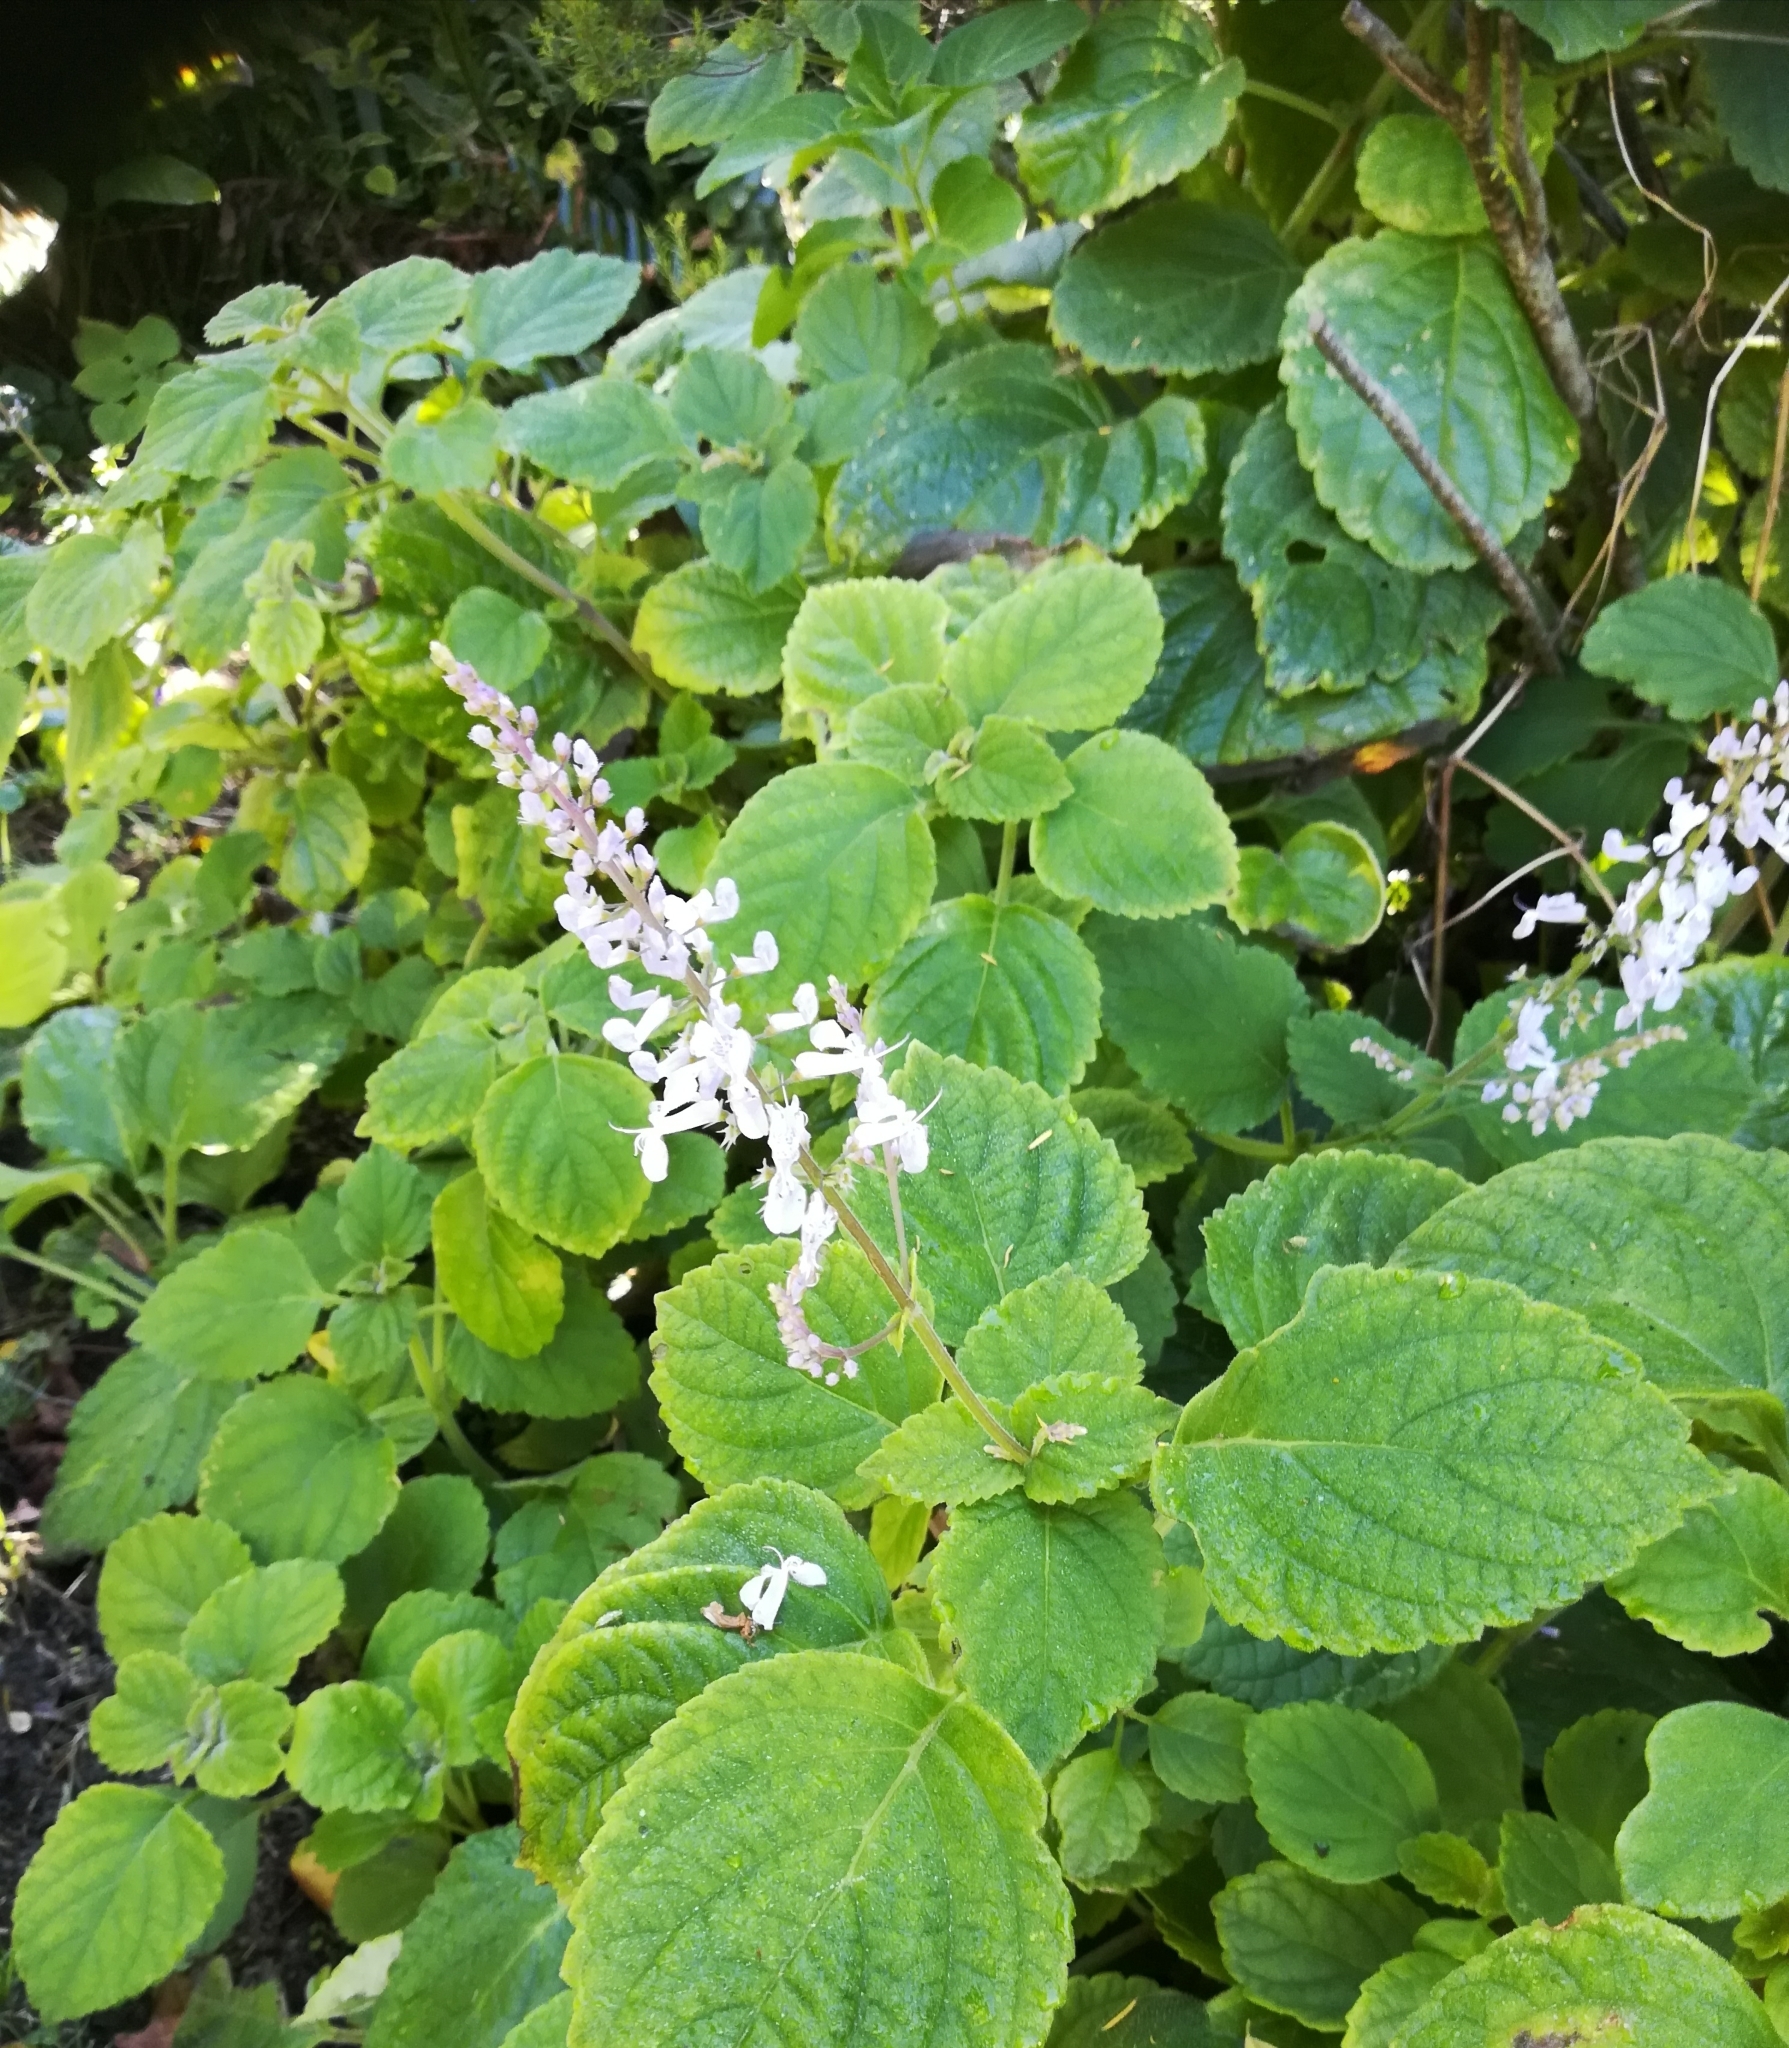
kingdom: Plantae
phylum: Tracheophyta
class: Magnoliopsida
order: Lamiales
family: Lamiaceae
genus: Plectranthus
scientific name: Plectranthus fruticosus
